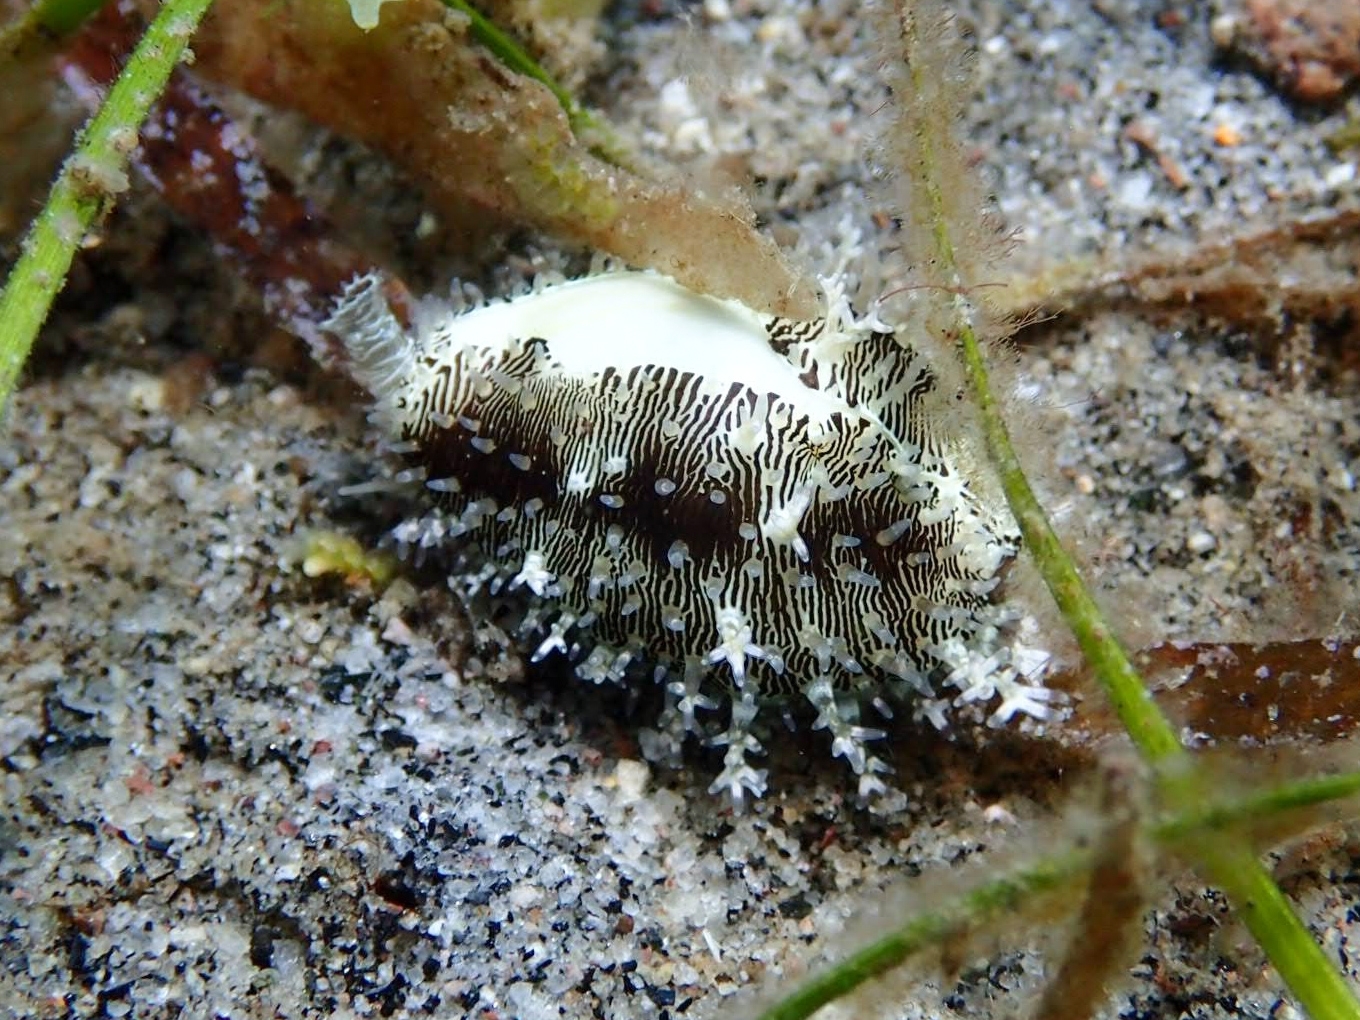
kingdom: Animalia
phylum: Mollusca
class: Gastropoda
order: Littorinimorpha
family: Cypraeidae
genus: Monetaria
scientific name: Monetaria moneta
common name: Money cowrie
